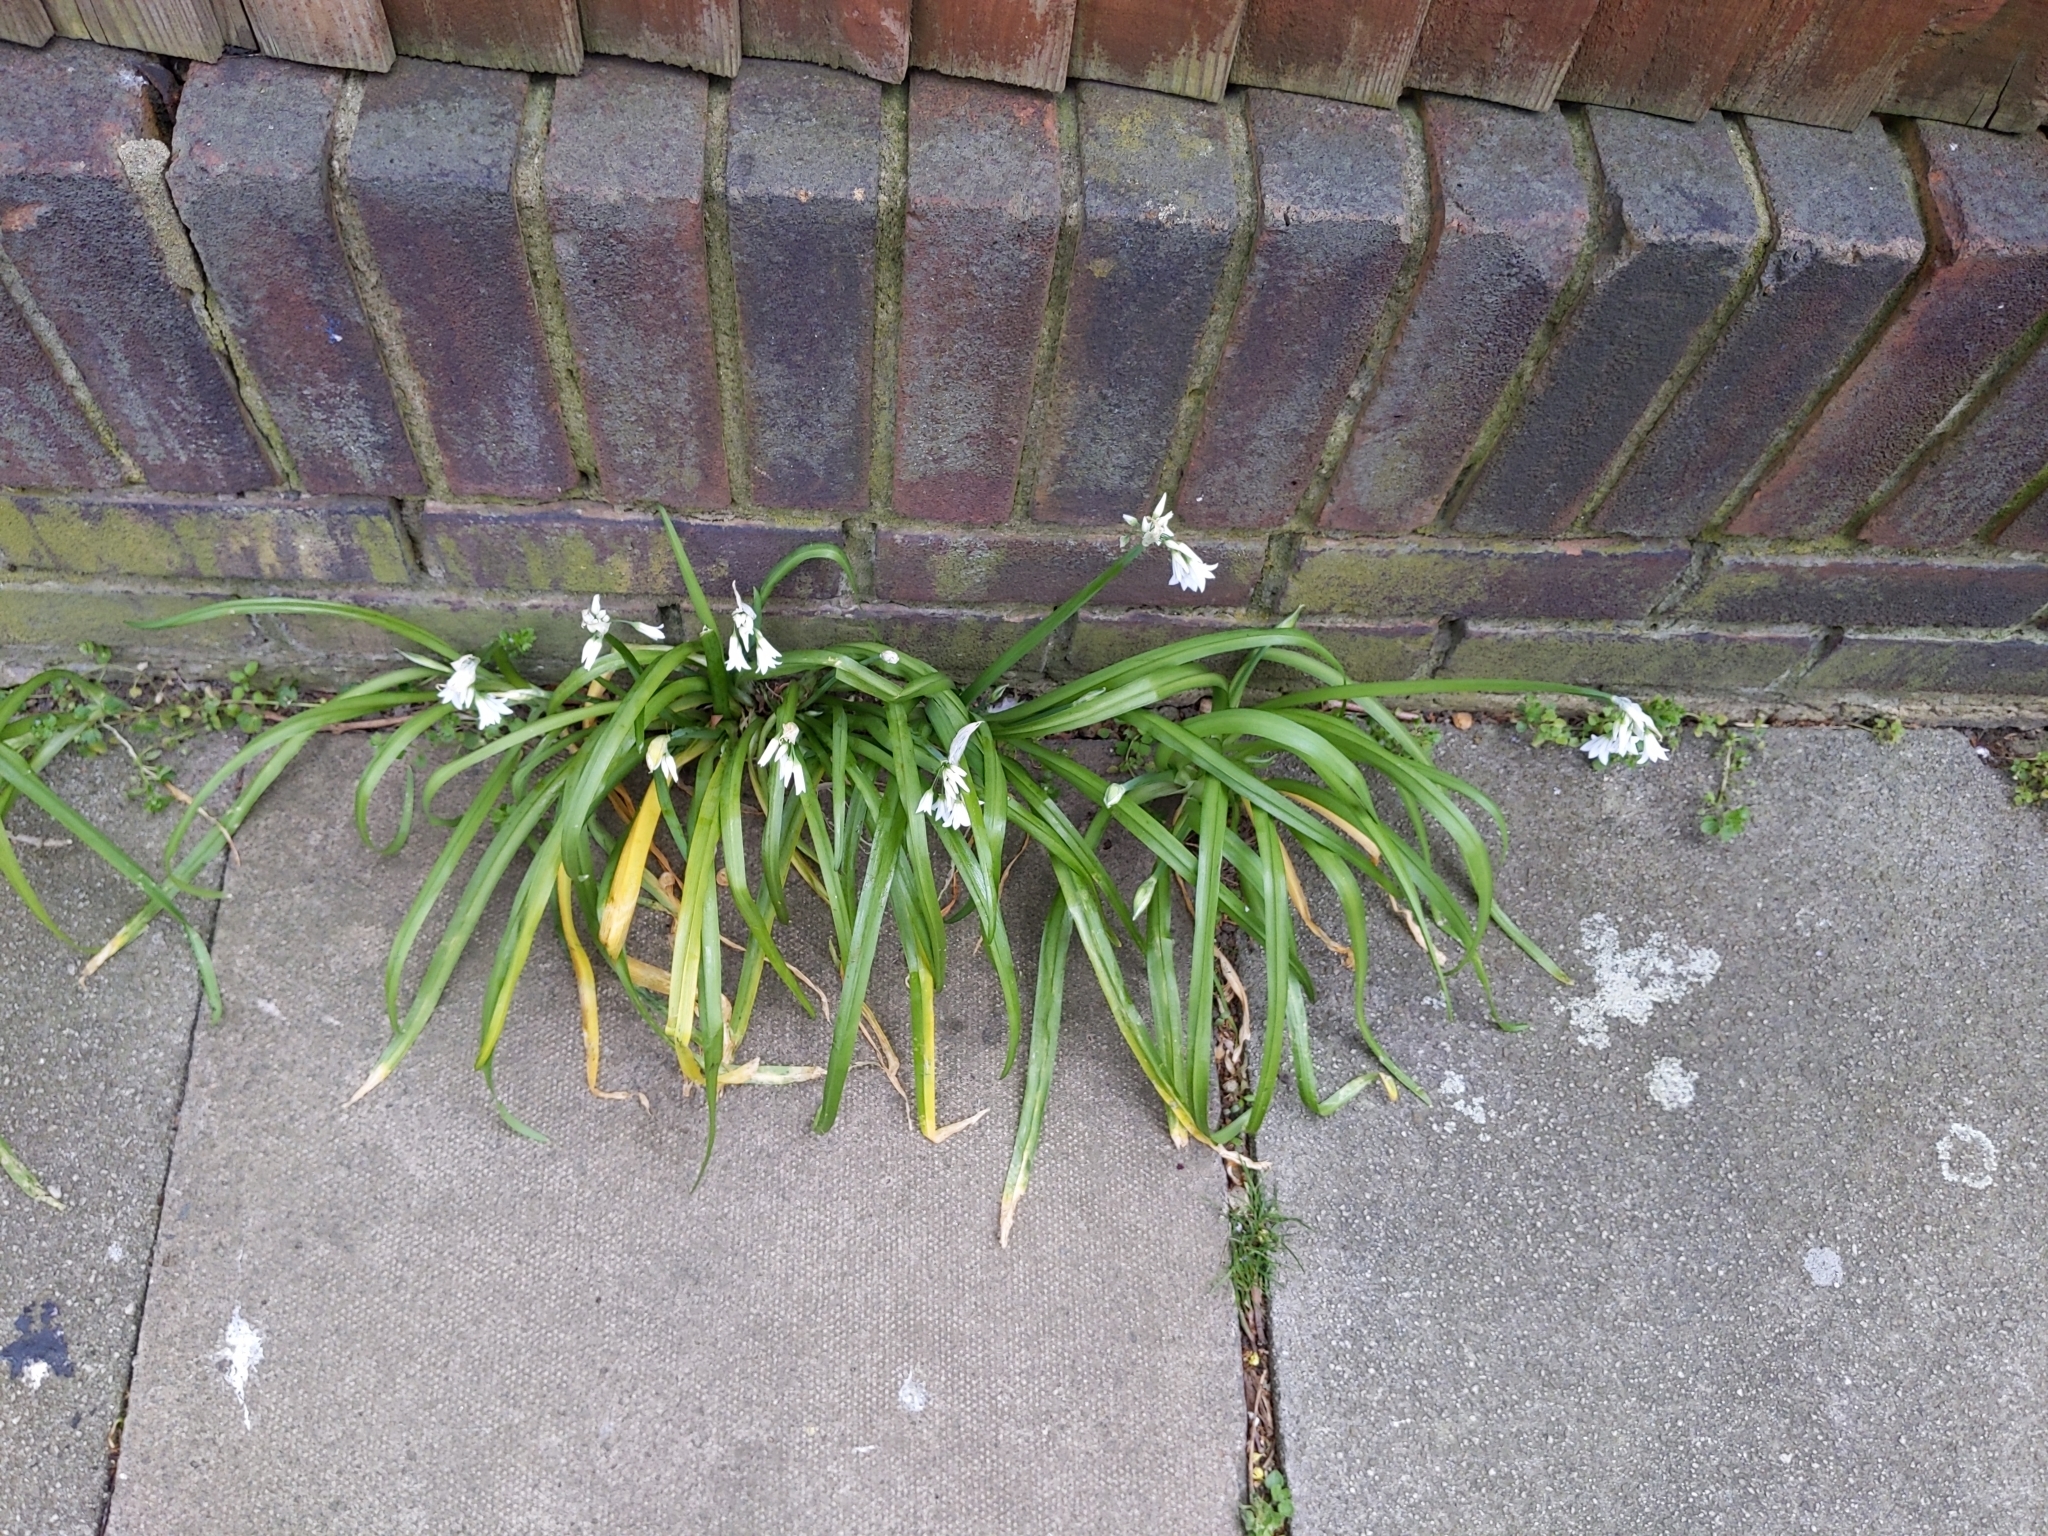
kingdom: Plantae
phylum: Tracheophyta
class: Liliopsida
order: Asparagales
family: Amaryllidaceae
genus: Allium
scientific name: Allium triquetrum
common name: Three-cornered garlic
